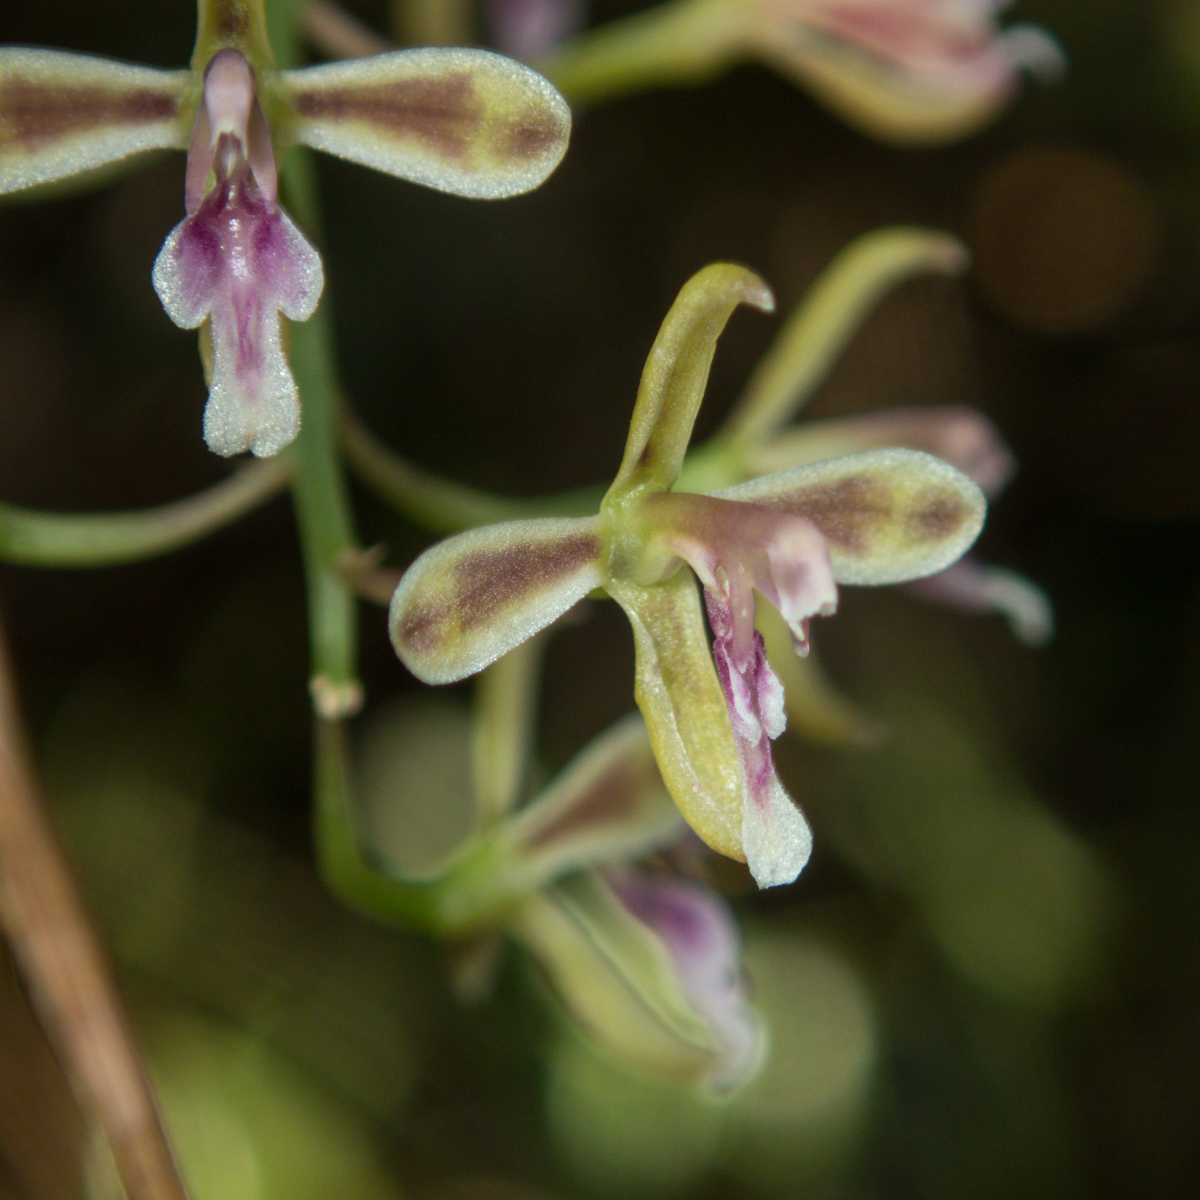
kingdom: Plantae
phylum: Tracheophyta
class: Liliopsida
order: Asparagales
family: Orchidaceae
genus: Acriopsis
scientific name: Acriopsis liliifolia
